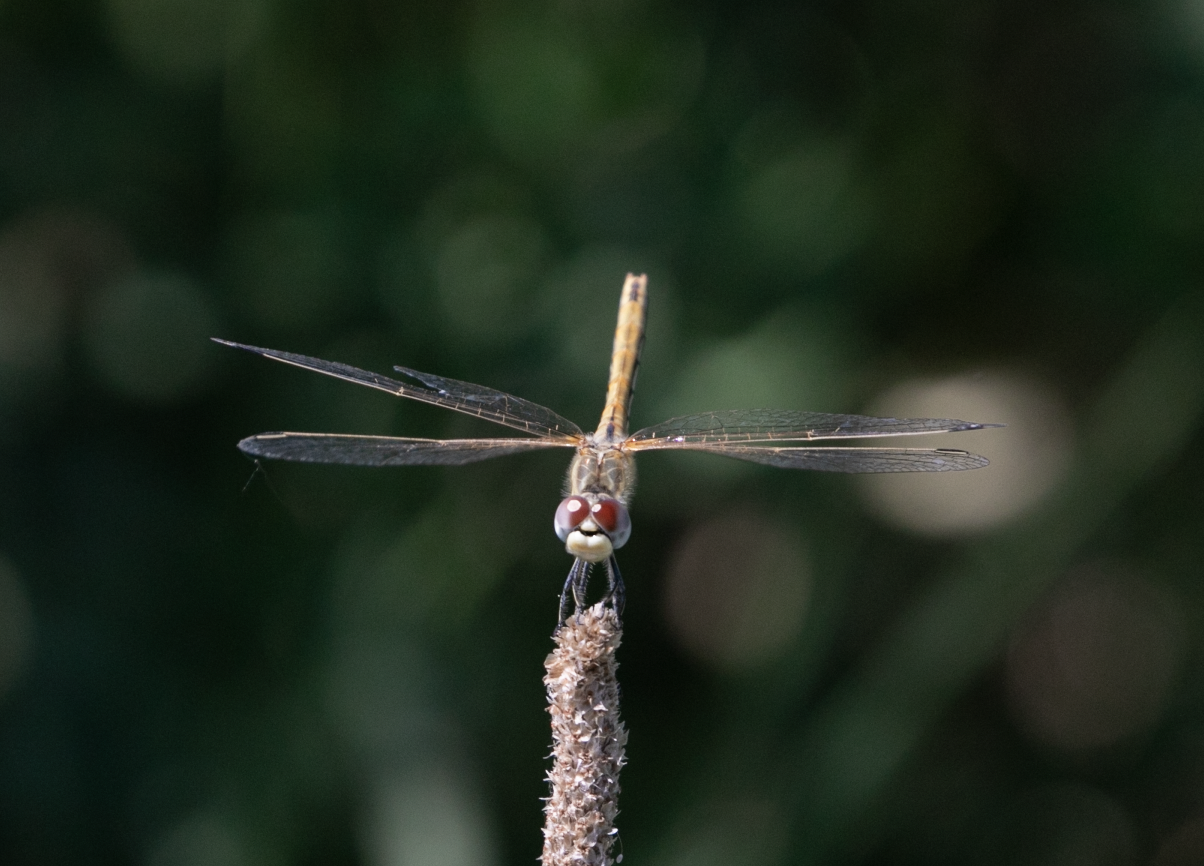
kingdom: Animalia
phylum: Arthropoda
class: Insecta
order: Odonata
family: Libellulidae
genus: Sympetrum
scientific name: Sympetrum fonscolombii
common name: Red-veined darter
